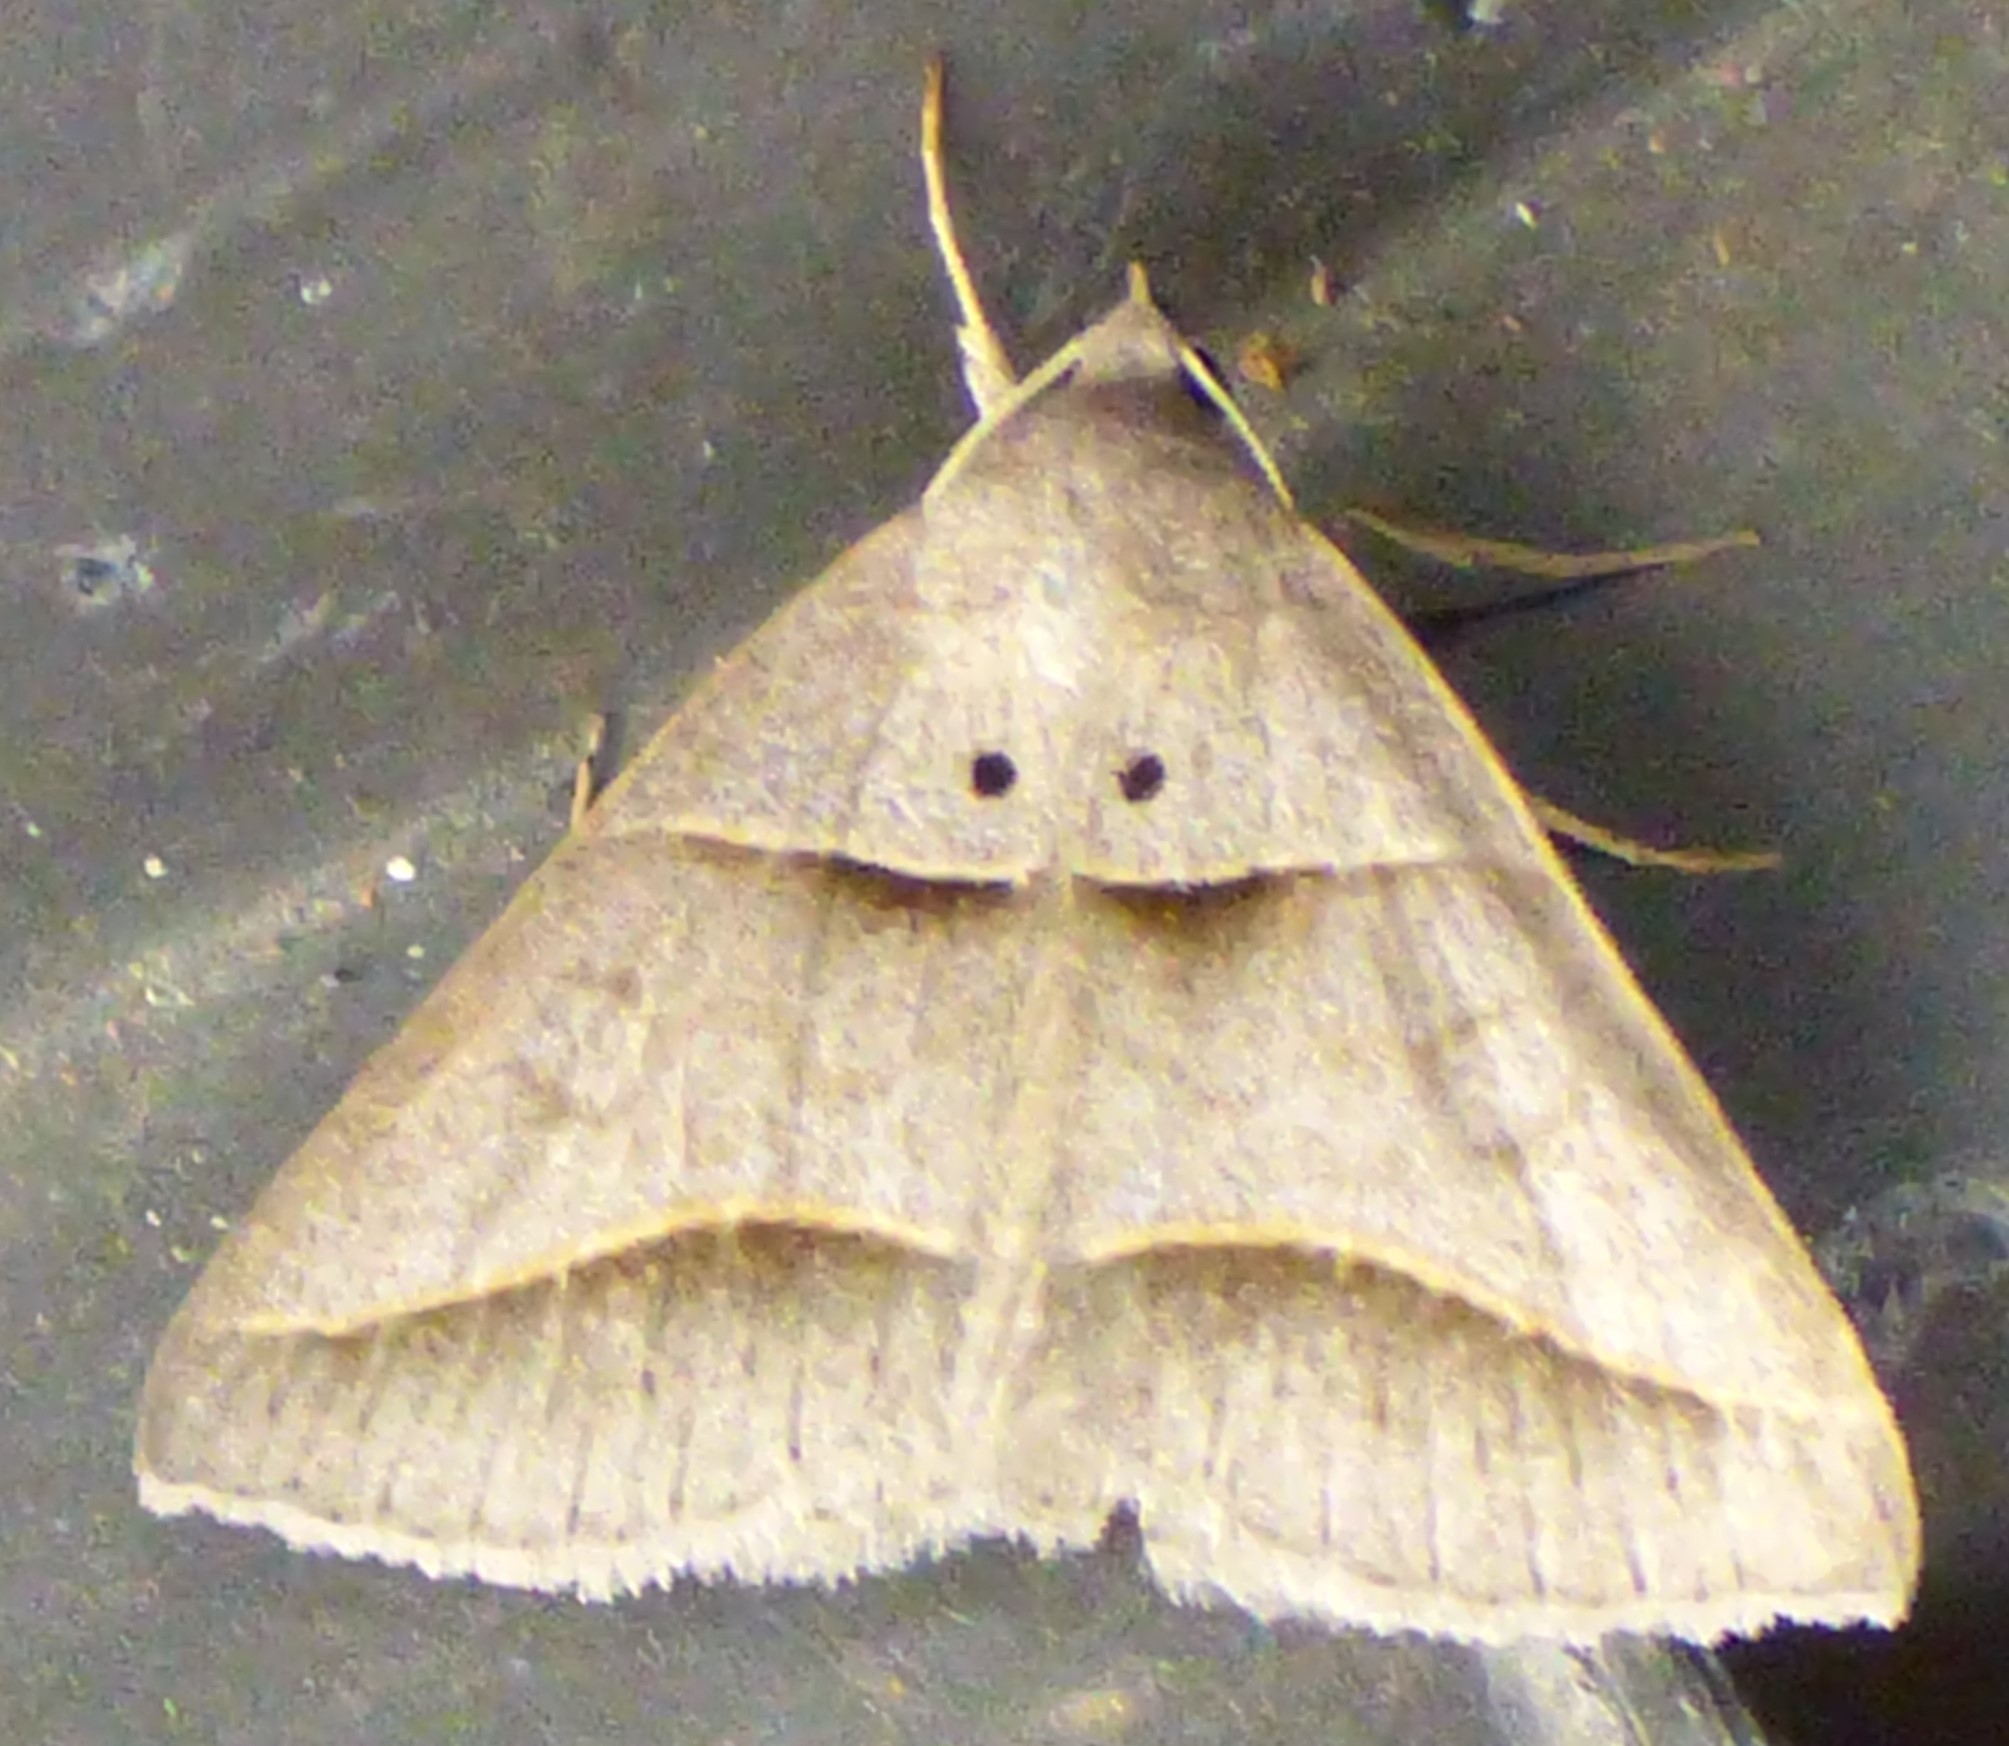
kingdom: Animalia
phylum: Arthropoda
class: Insecta
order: Lepidoptera
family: Erebidae
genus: Ptichodis
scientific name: Ptichodis herbarum
